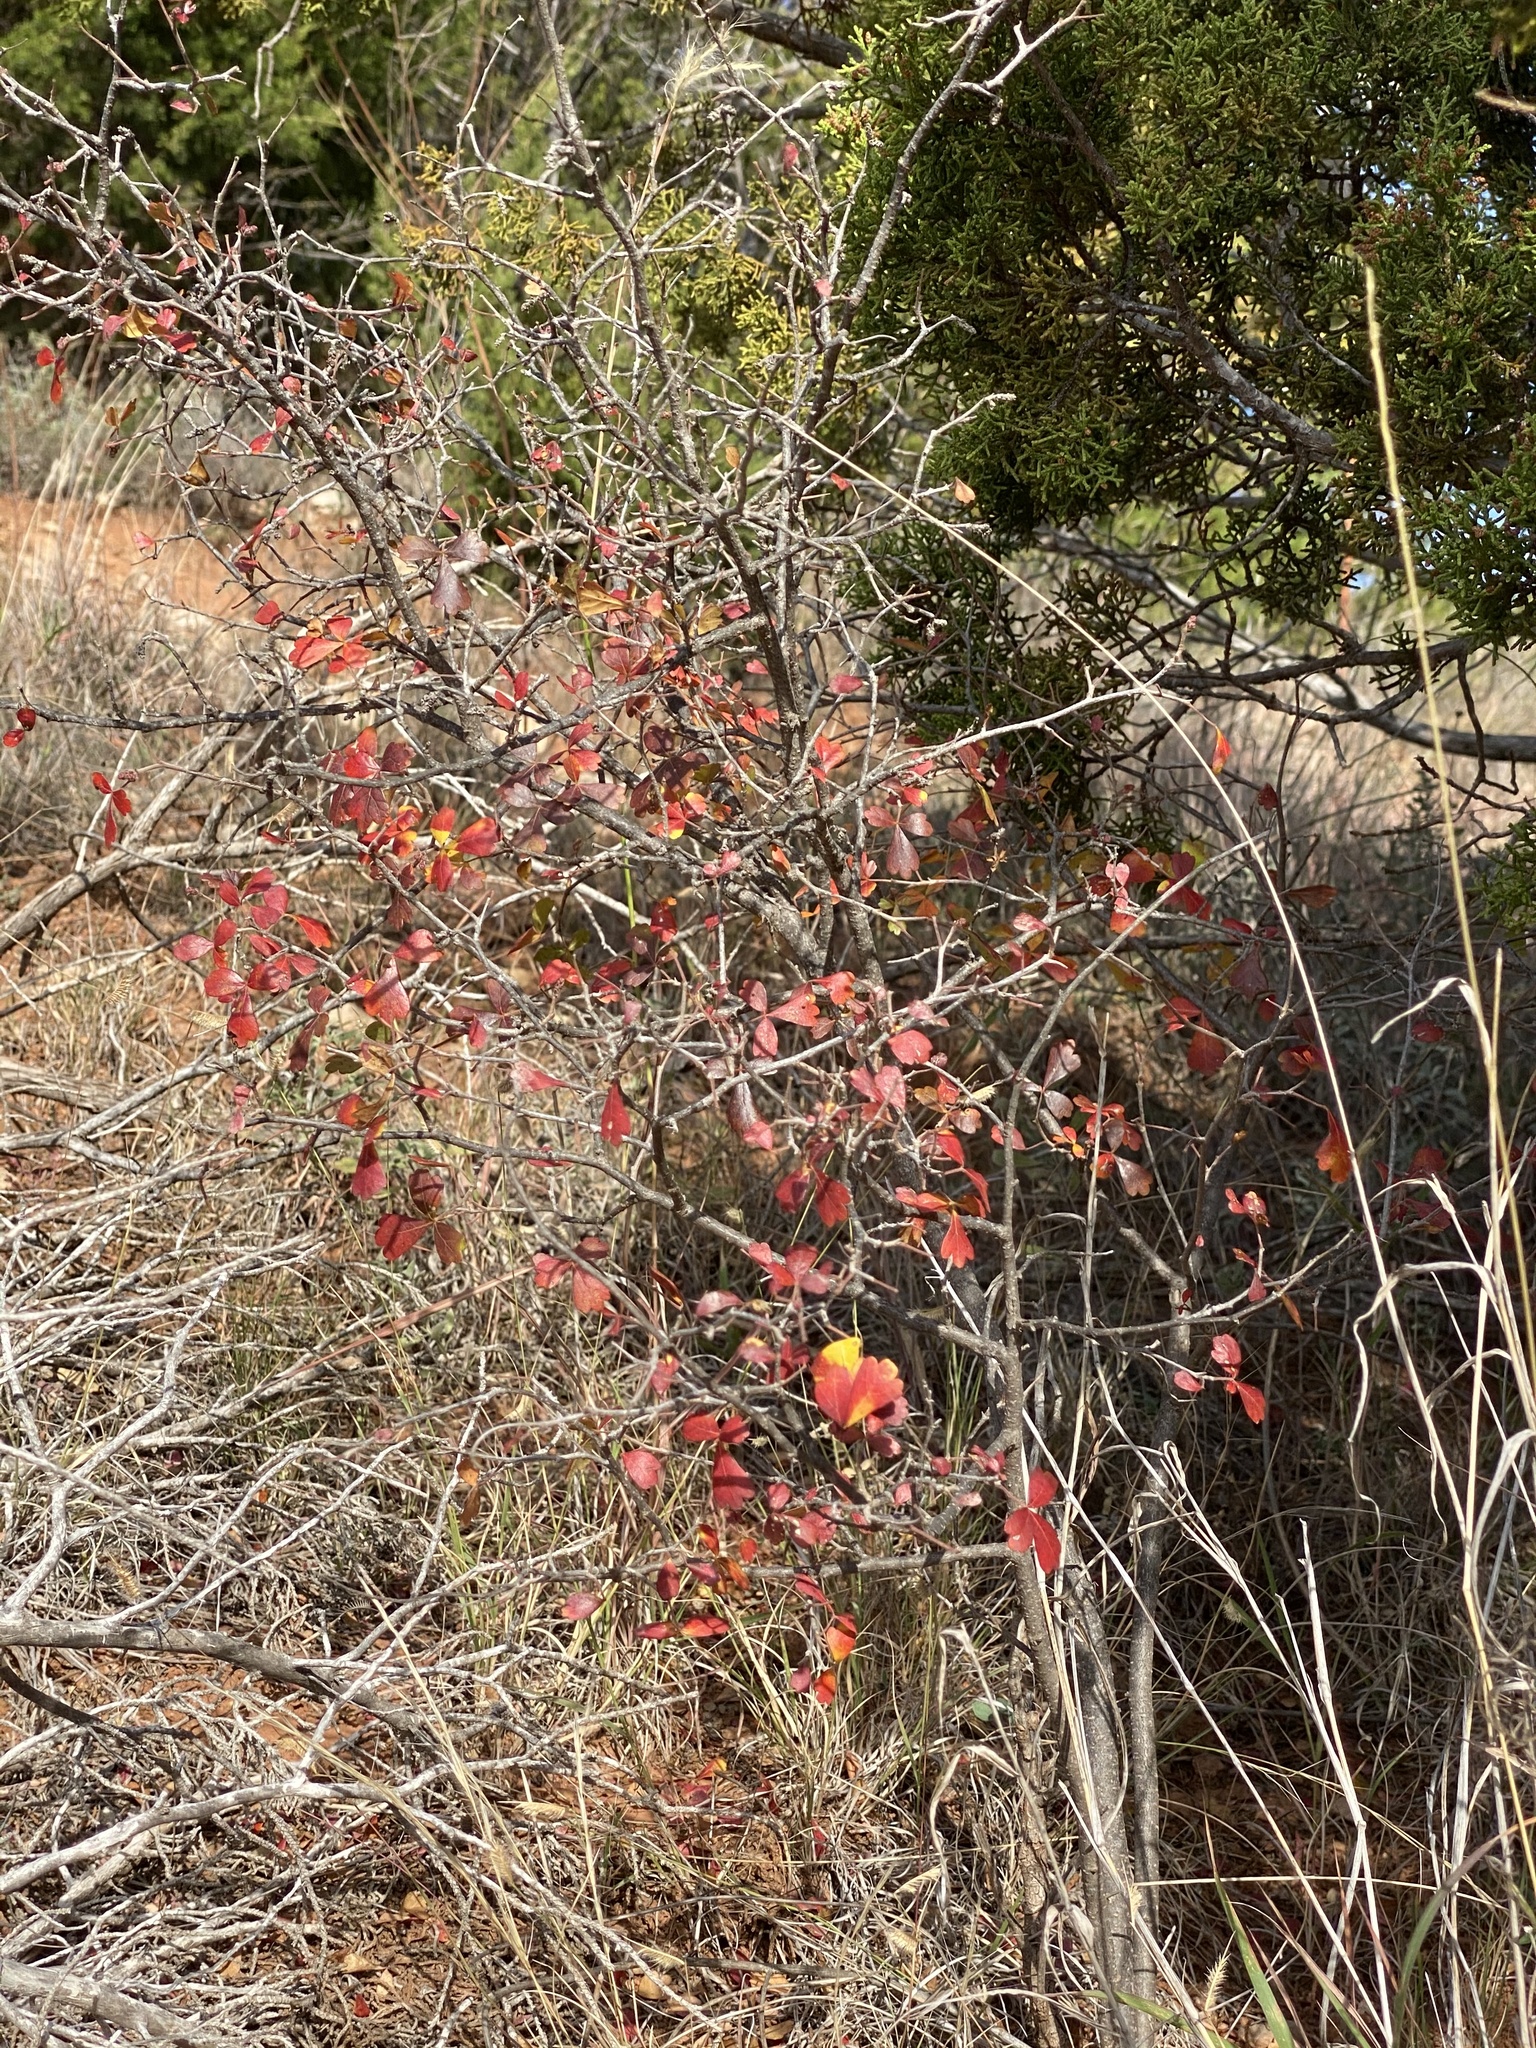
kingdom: Plantae
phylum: Tracheophyta
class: Magnoliopsida
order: Sapindales
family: Anacardiaceae
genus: Rhus
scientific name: Rhus aromatica
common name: Aromatic sumac
